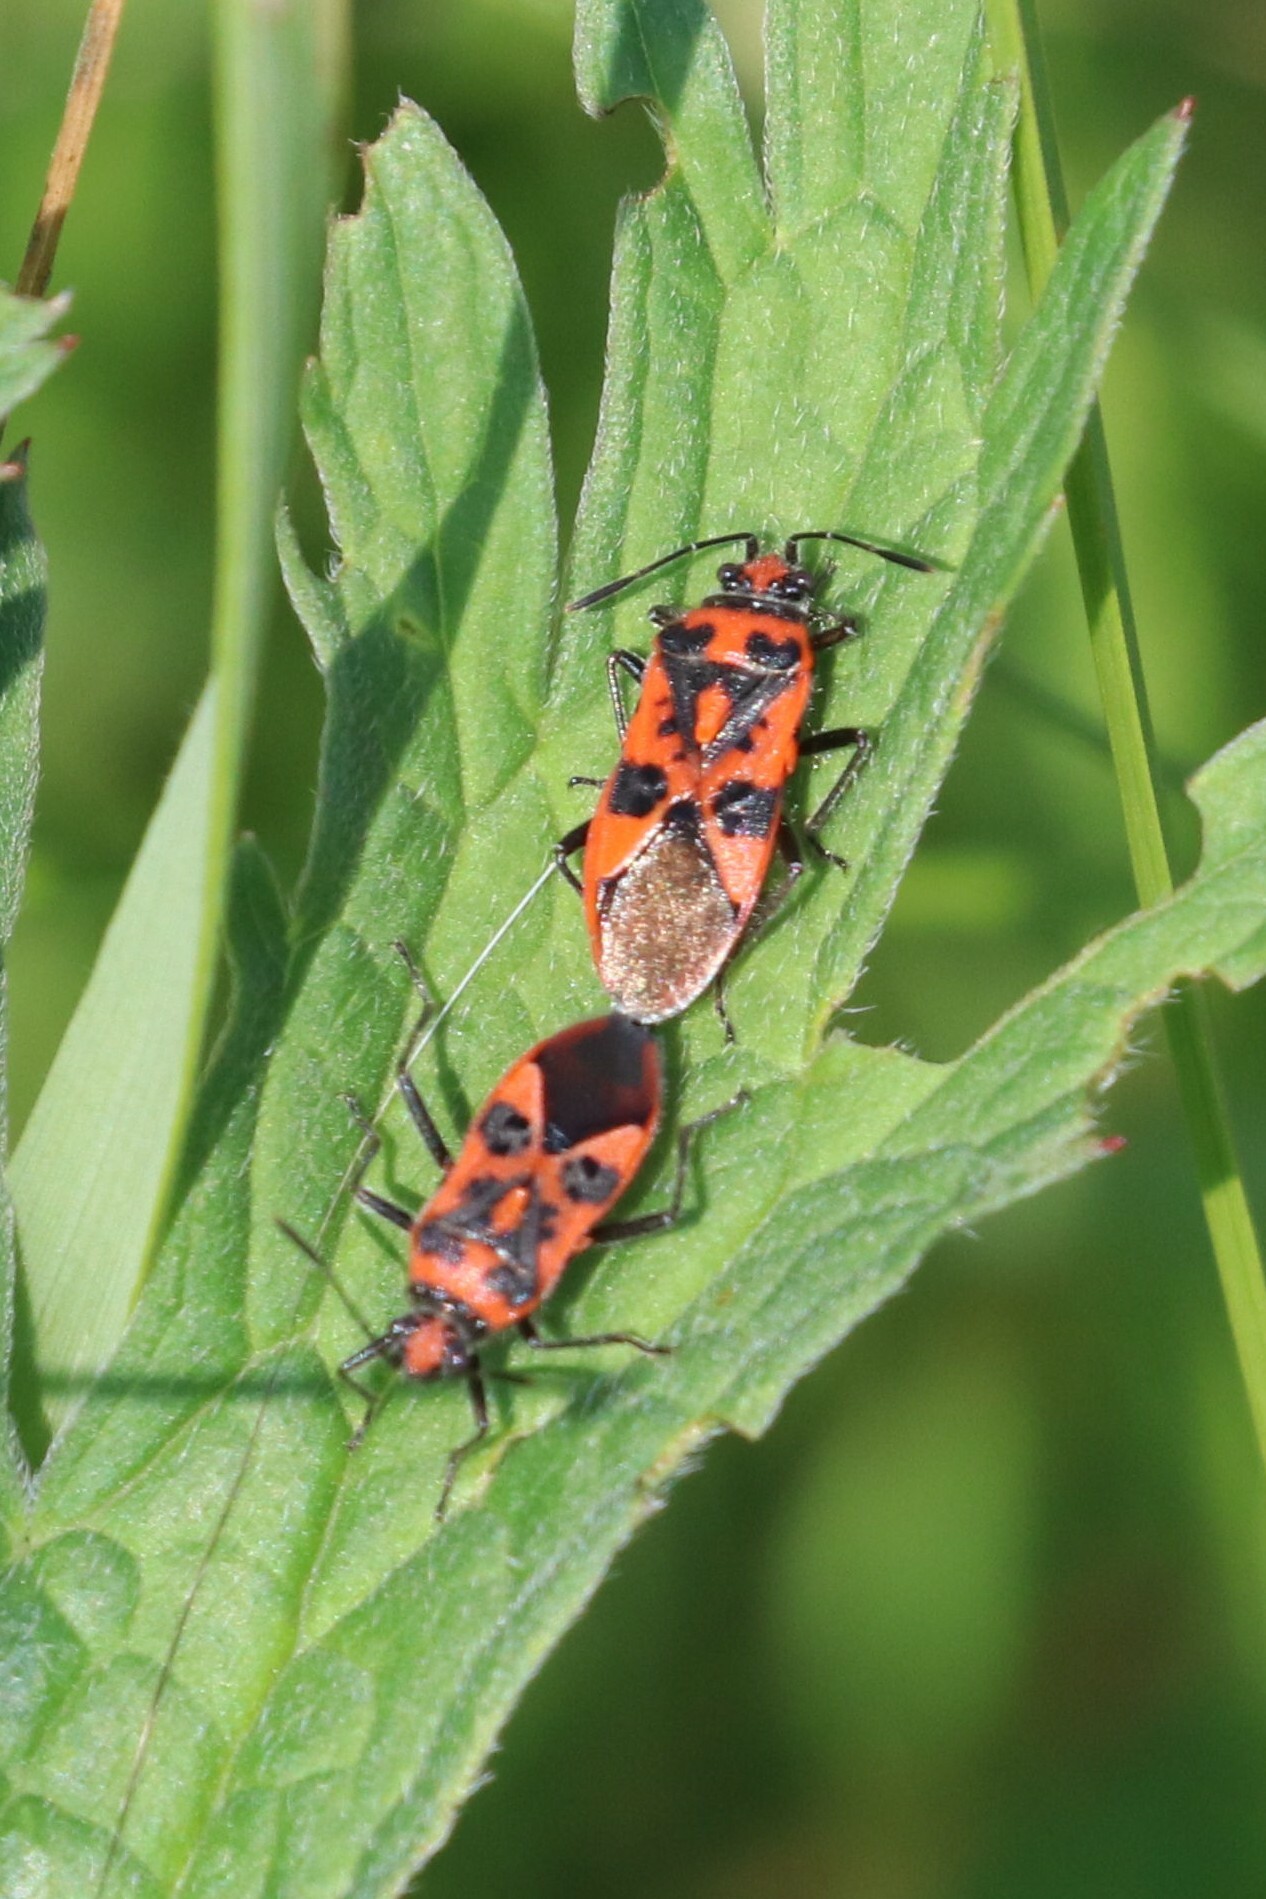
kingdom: Animalia
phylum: Arthropoda
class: Insecta
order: Hemiptera
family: Rhopalidae
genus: Corizus
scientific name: Corizus hyoscyami
